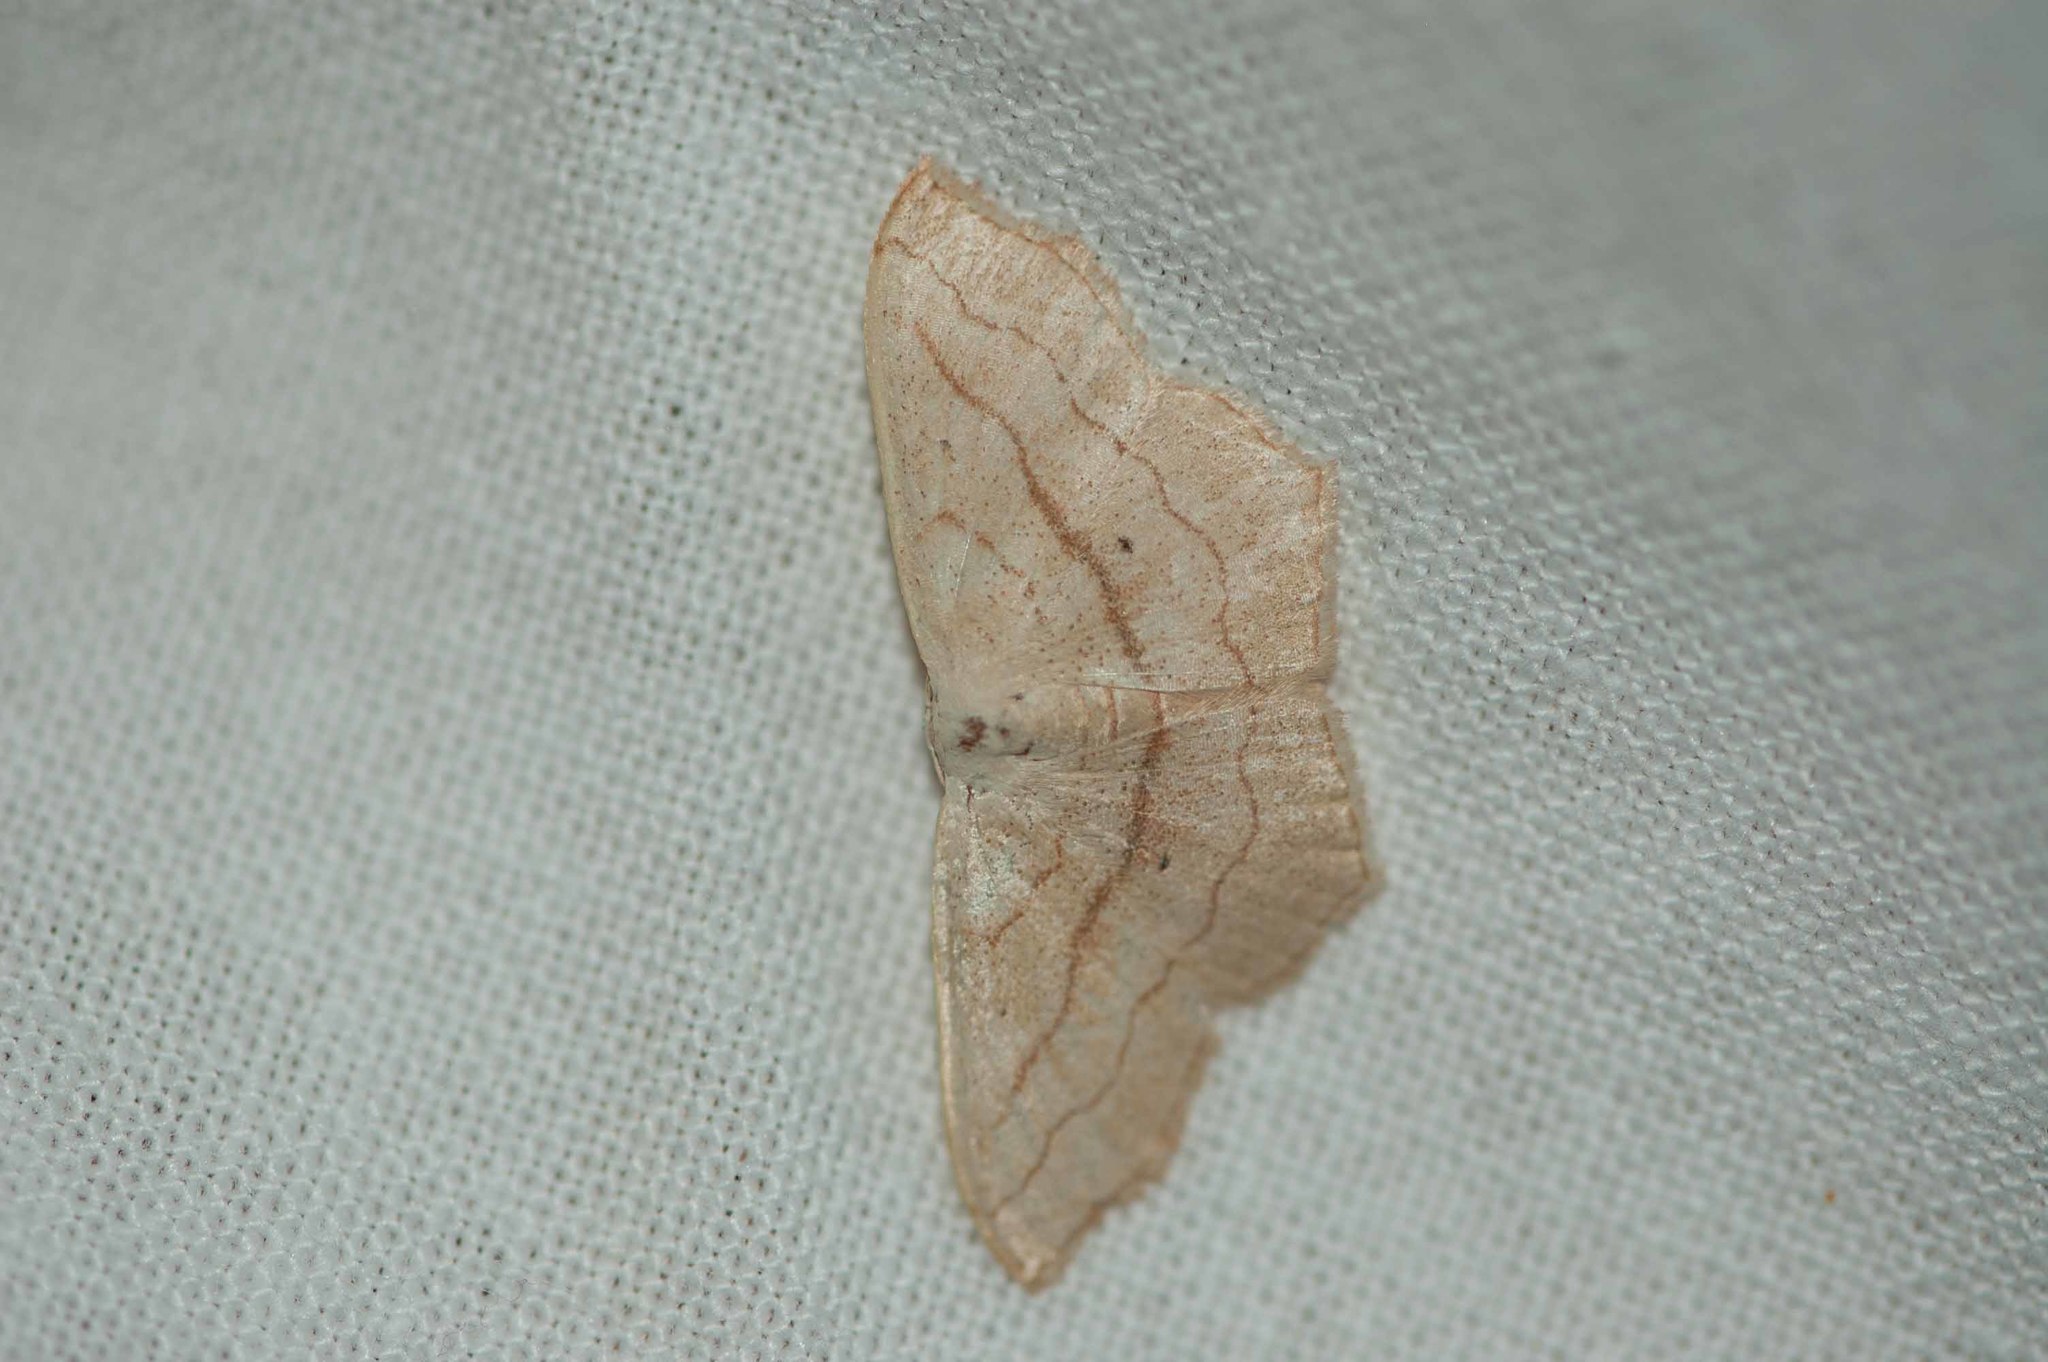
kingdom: Animalia
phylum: Arthropoda
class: Insecta
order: Lepidoptera
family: Geometridae
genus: Scopula
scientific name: Scopula imitaria
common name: Small blood-vein
